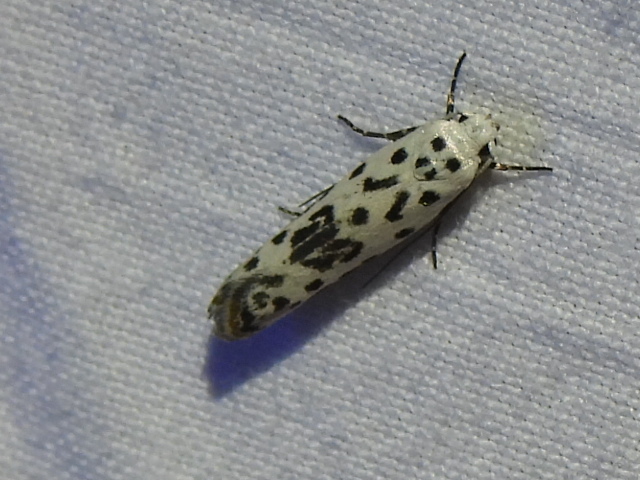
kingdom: Animalia
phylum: Arthropoda
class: Insecta
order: Lepidoptera
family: Ethmiidae
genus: Ethmia
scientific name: Ethmia bittenella
